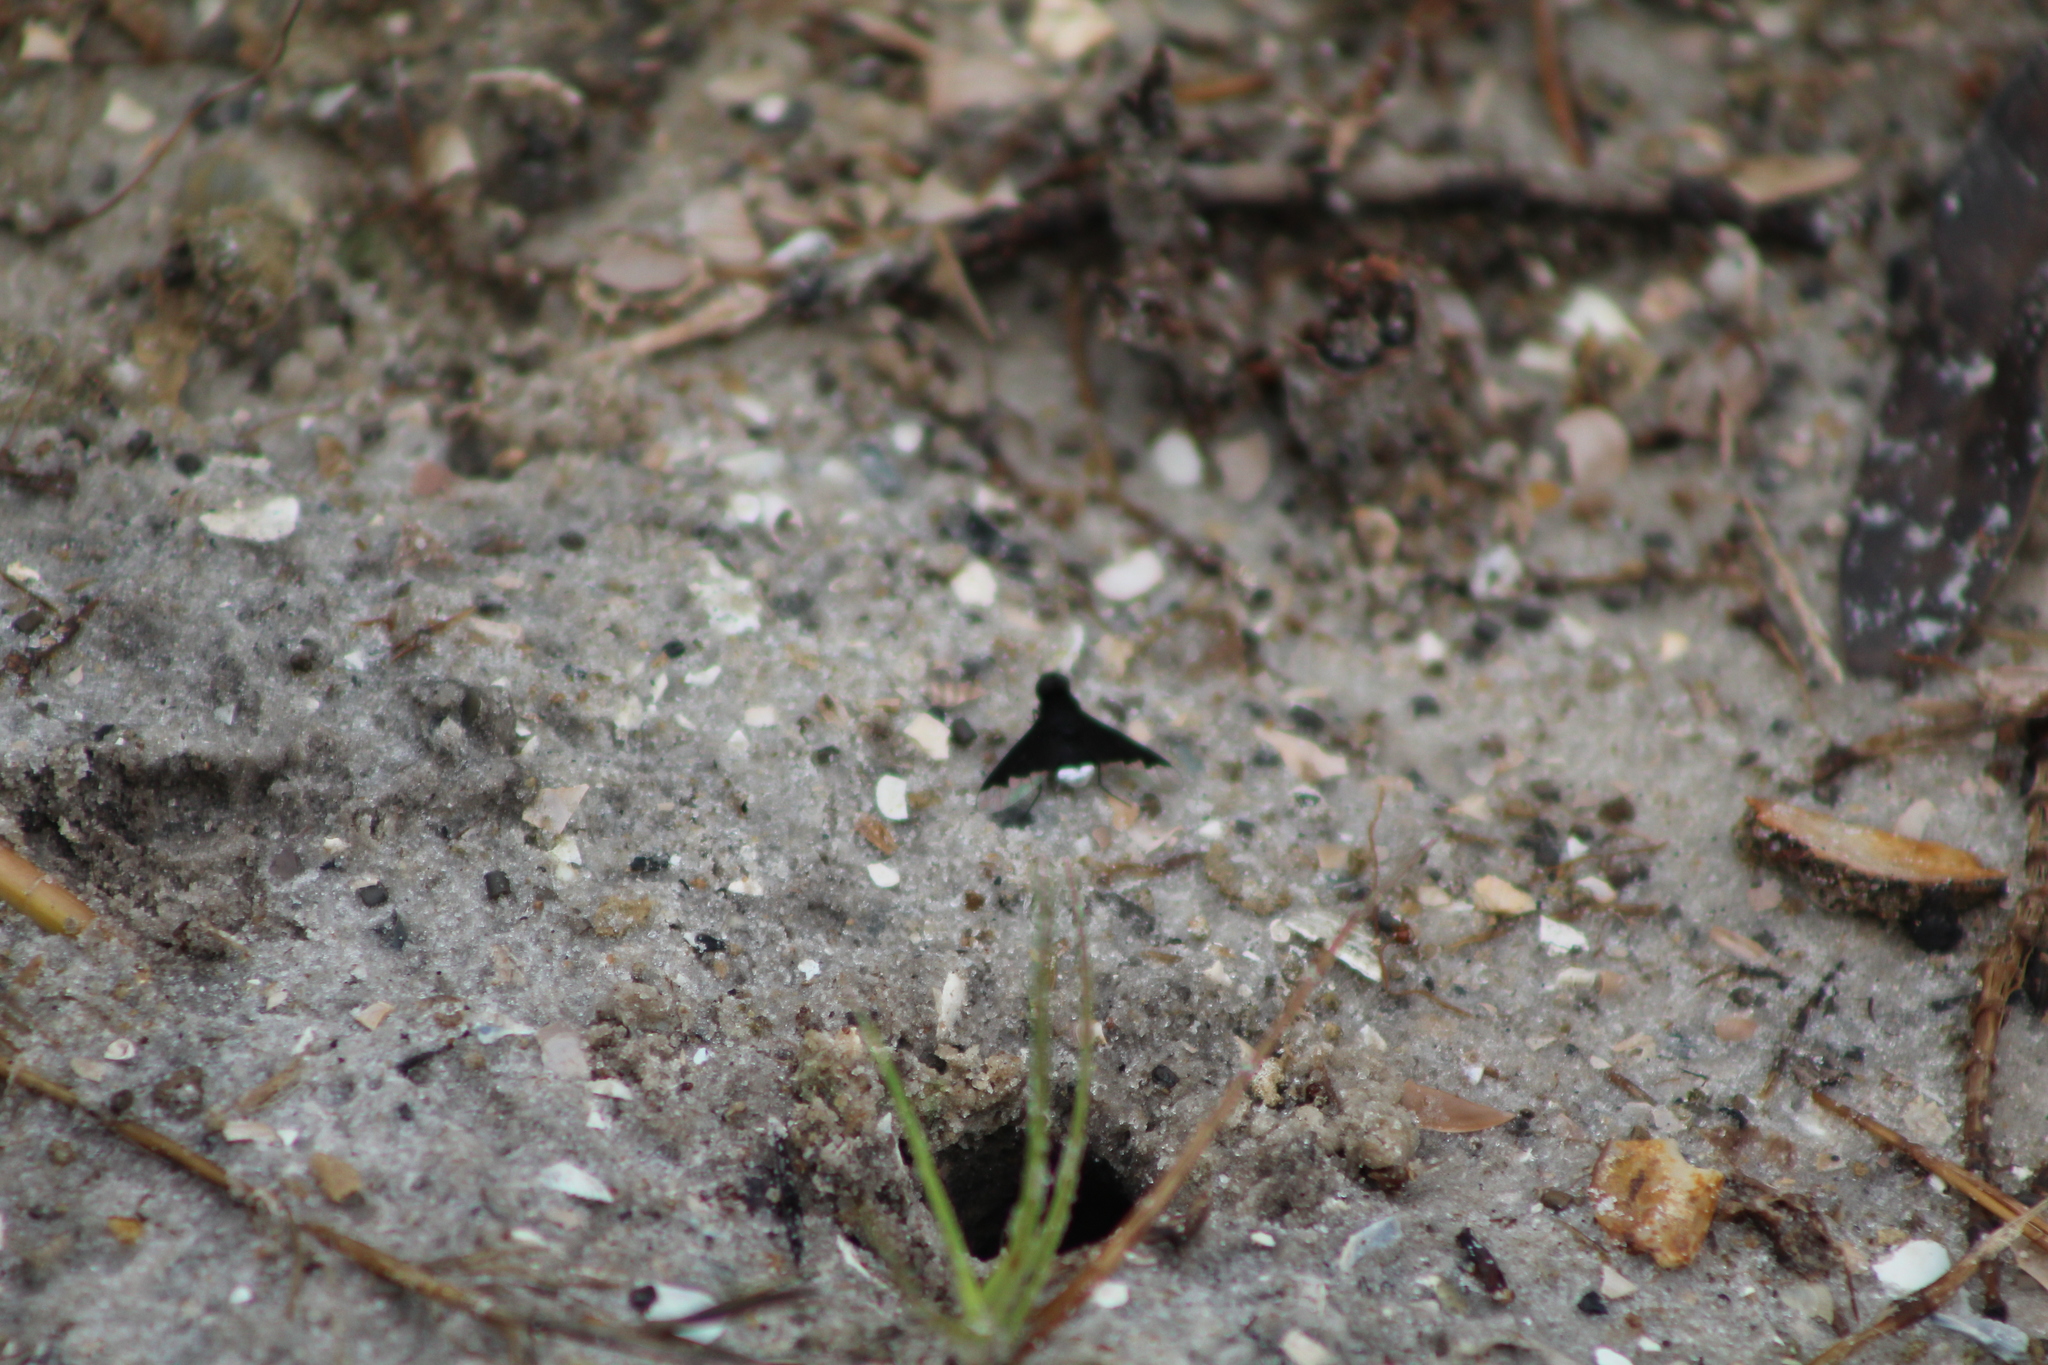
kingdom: Animalia
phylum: Arthropoda
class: Insecta
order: Diptera
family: Bombyliidae
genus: Anthrax
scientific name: Anthrax analis
